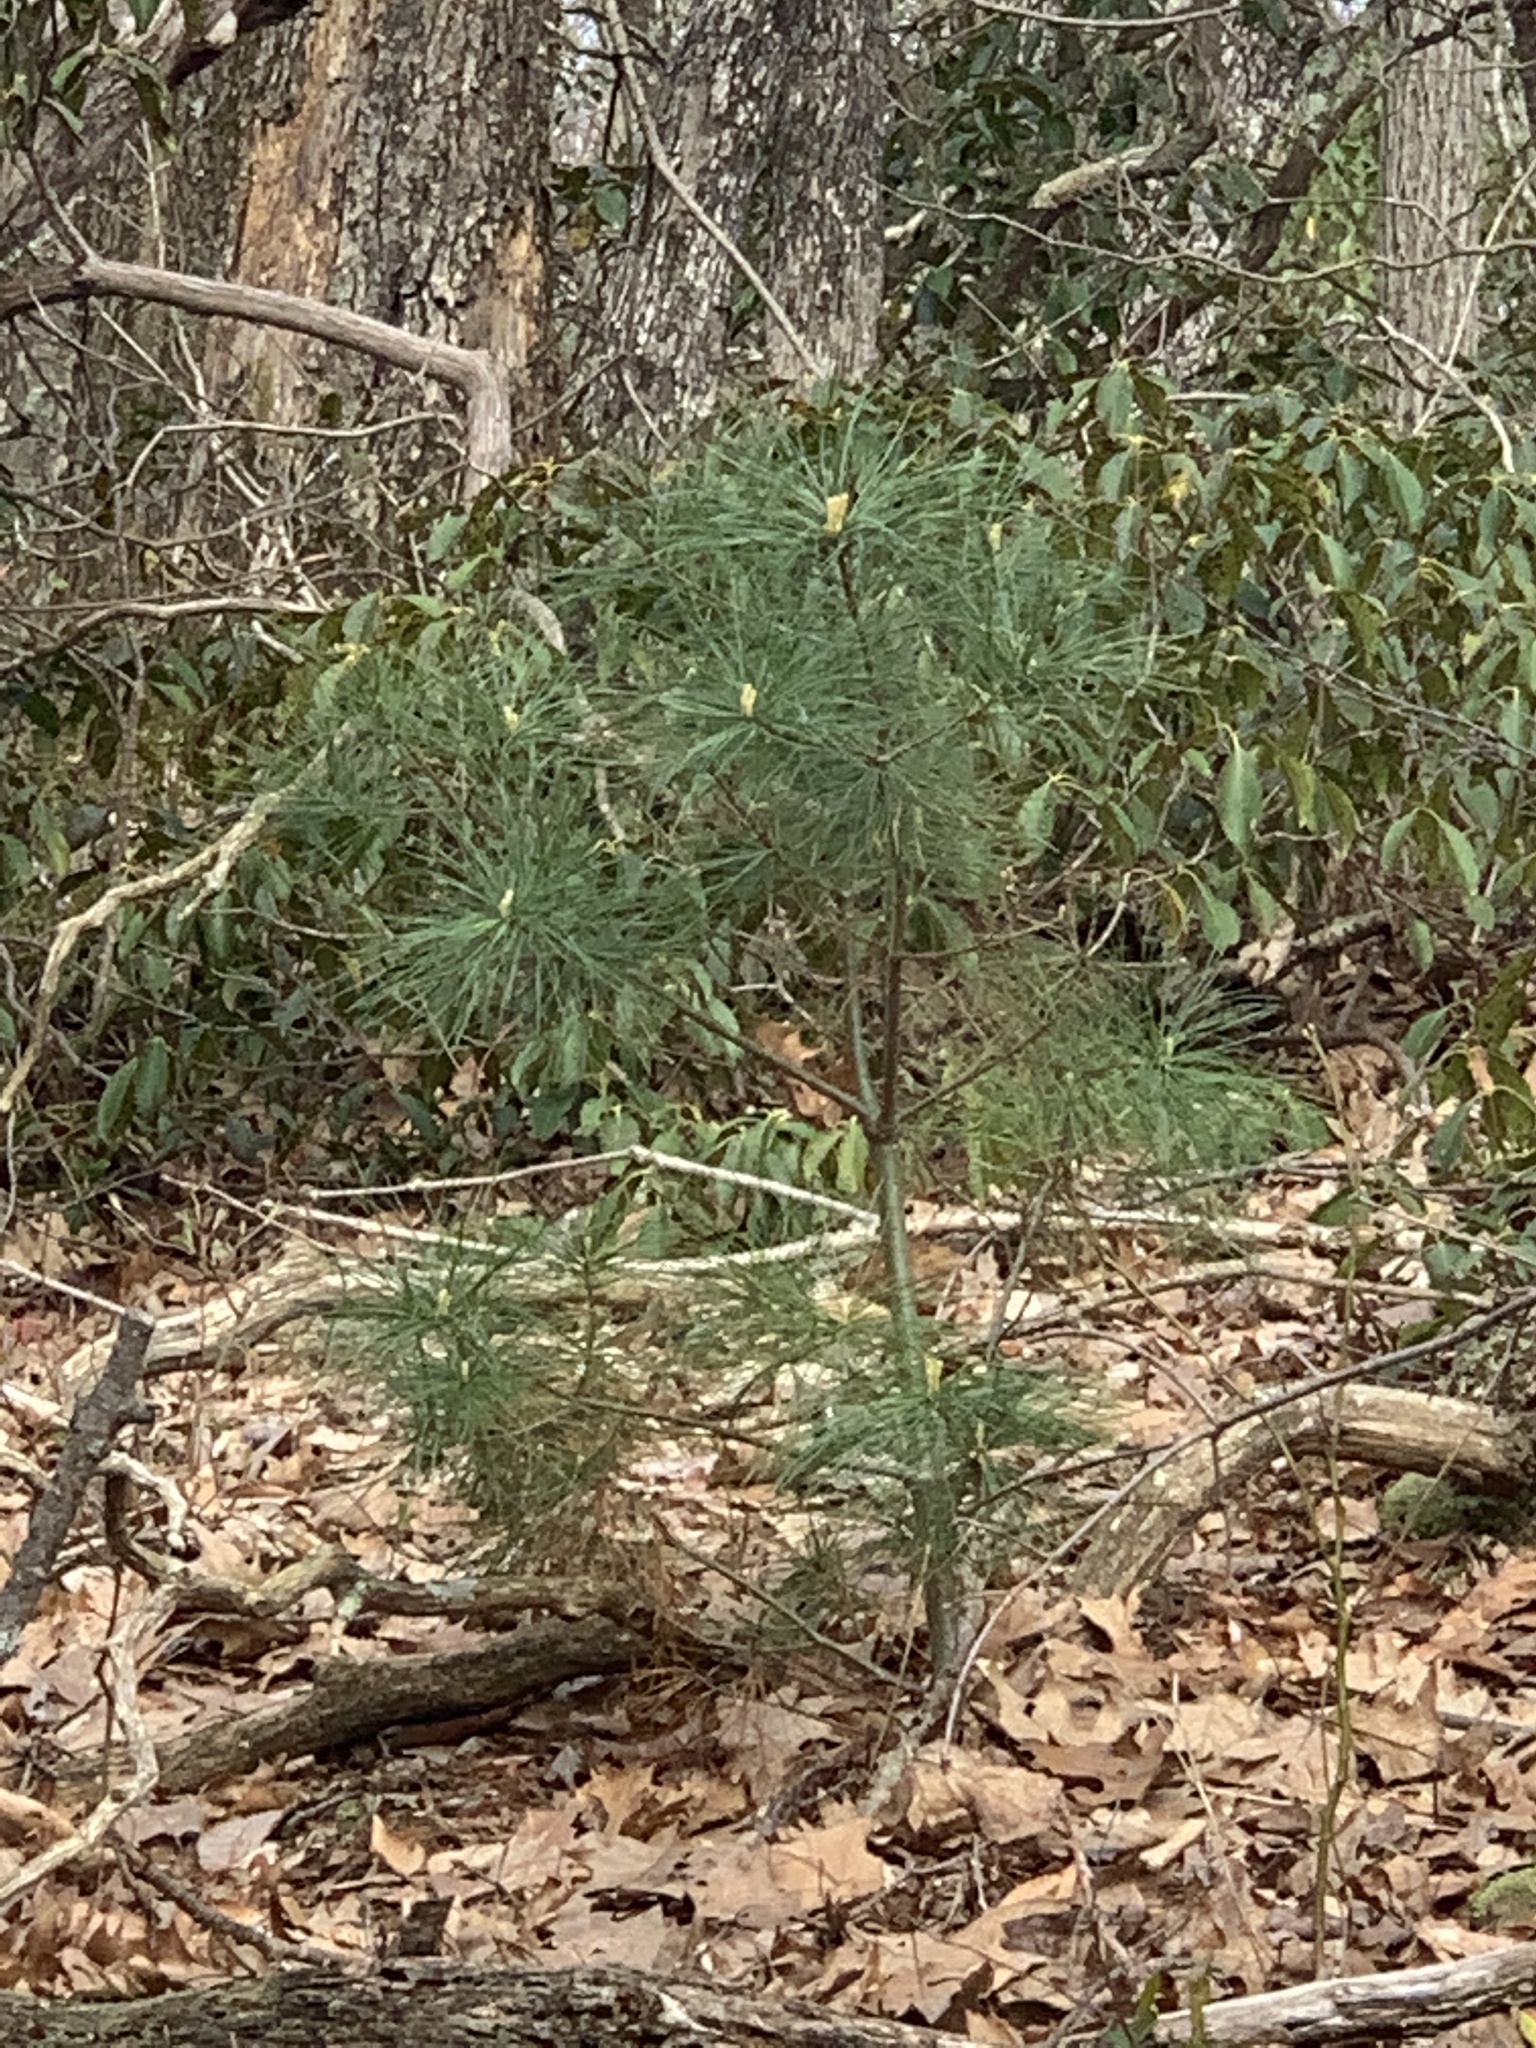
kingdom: Plantae
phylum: Tracheophyta
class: Pinopsida
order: Pinales
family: Pinaceae
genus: Pinus
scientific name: Pinus strobus
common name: Weymouth pine
